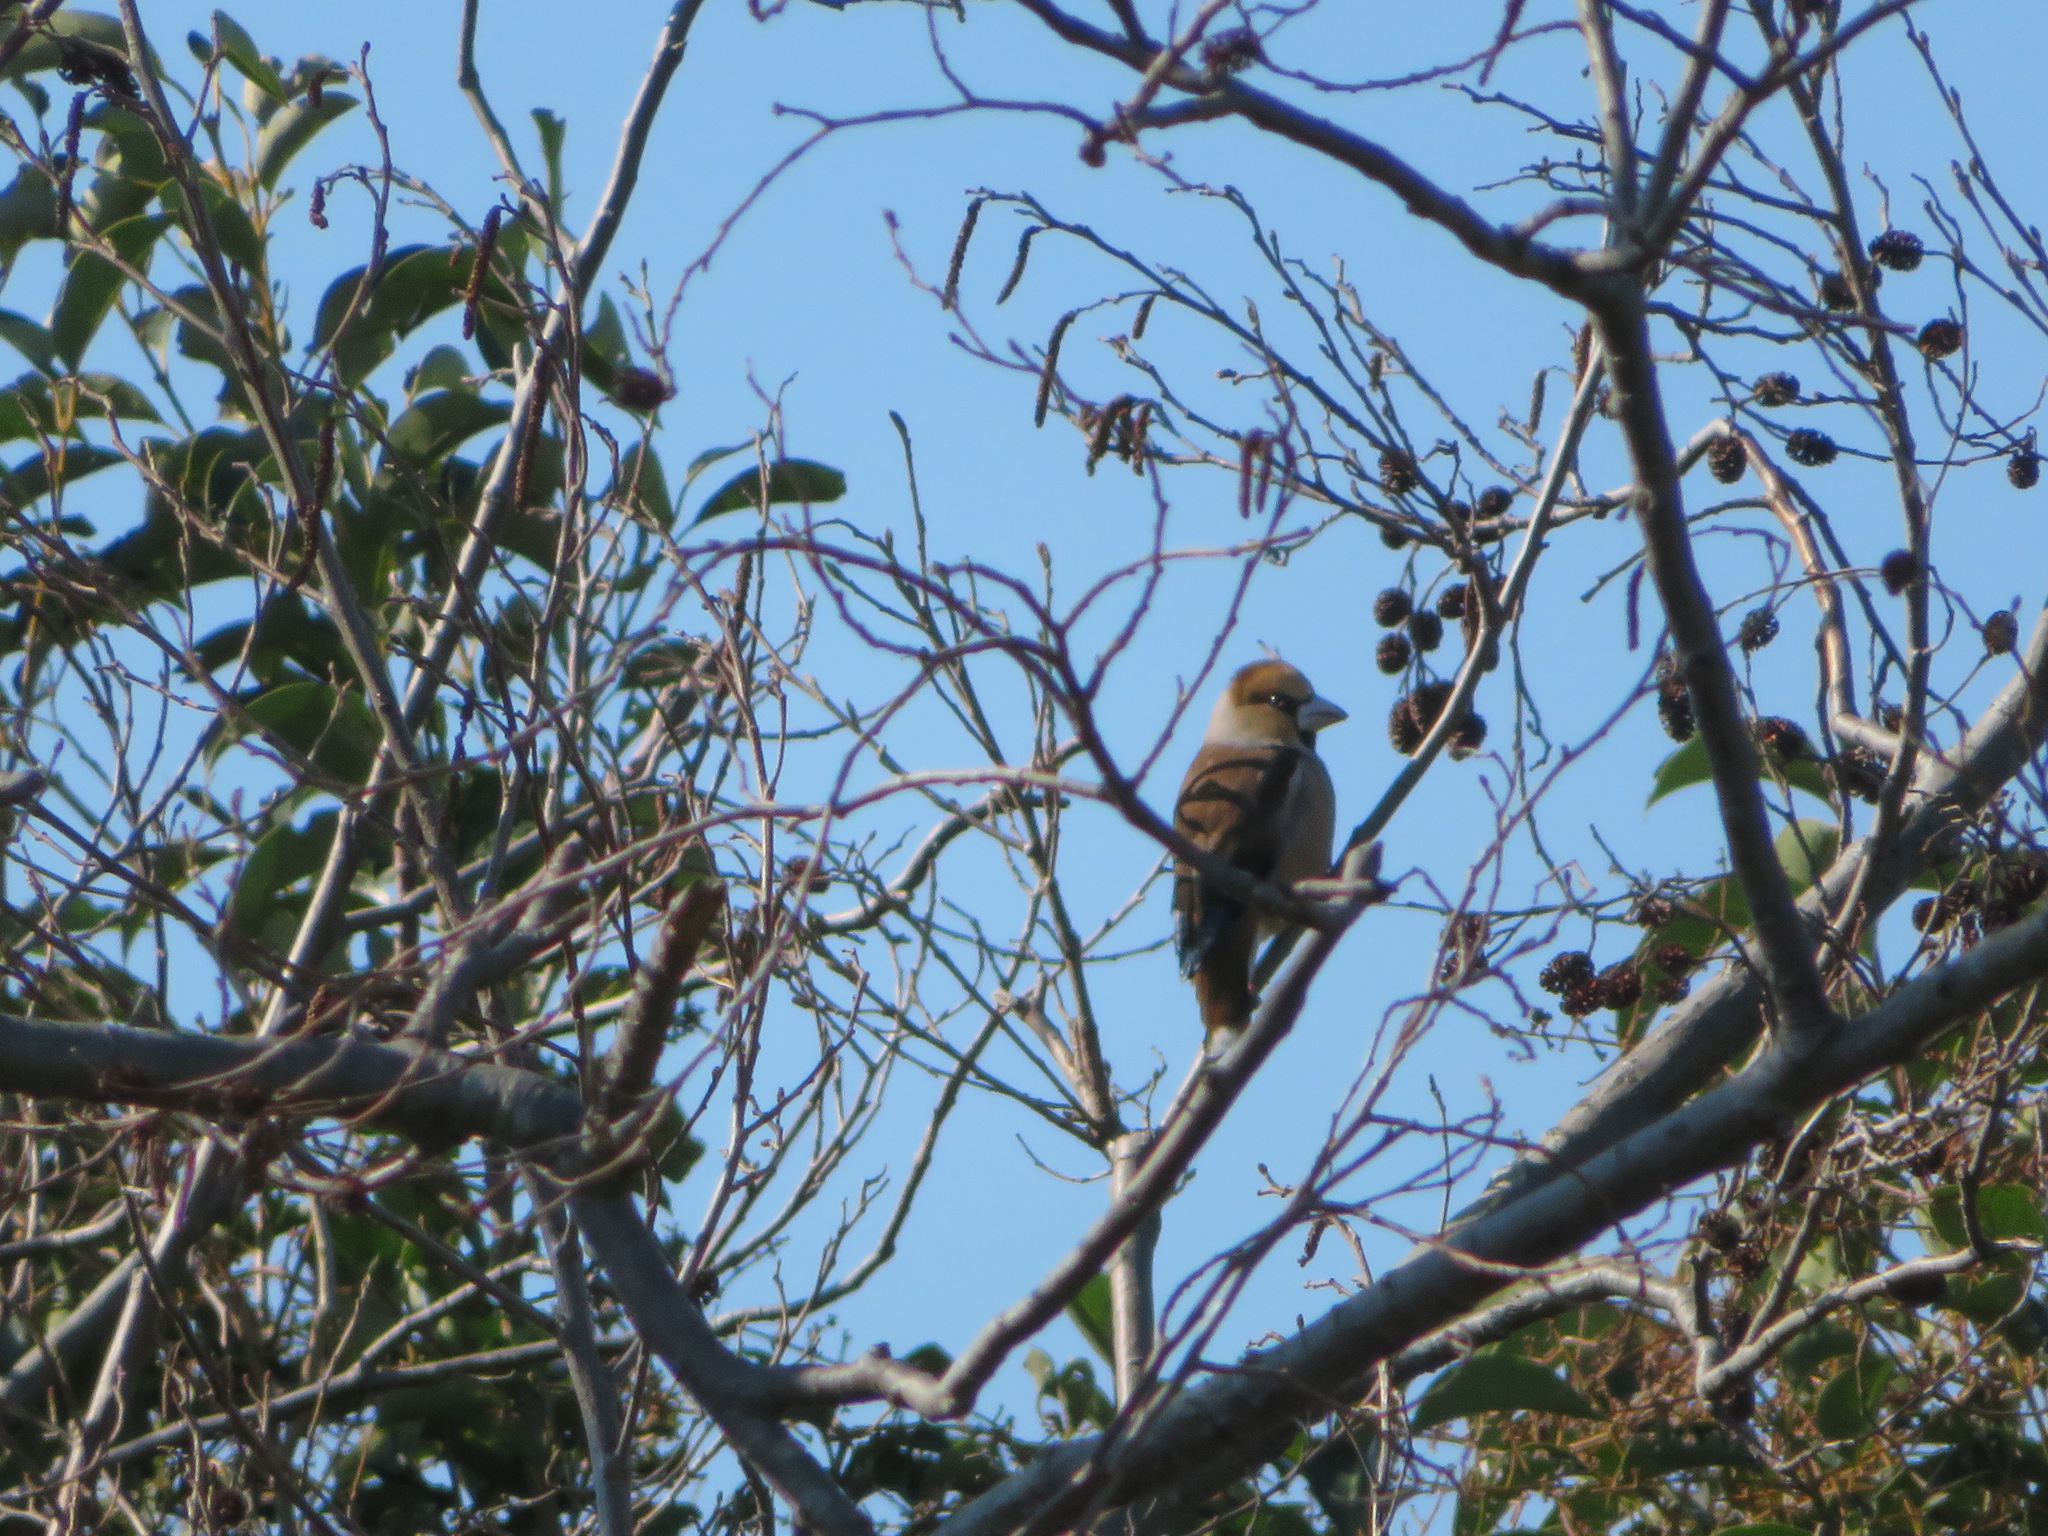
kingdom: Animalia
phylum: Chordata
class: Aves
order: Passeriformes
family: Fringillidae
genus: Coccothraustes
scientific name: Coccothraustes coccothraustes
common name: Hawfinch
